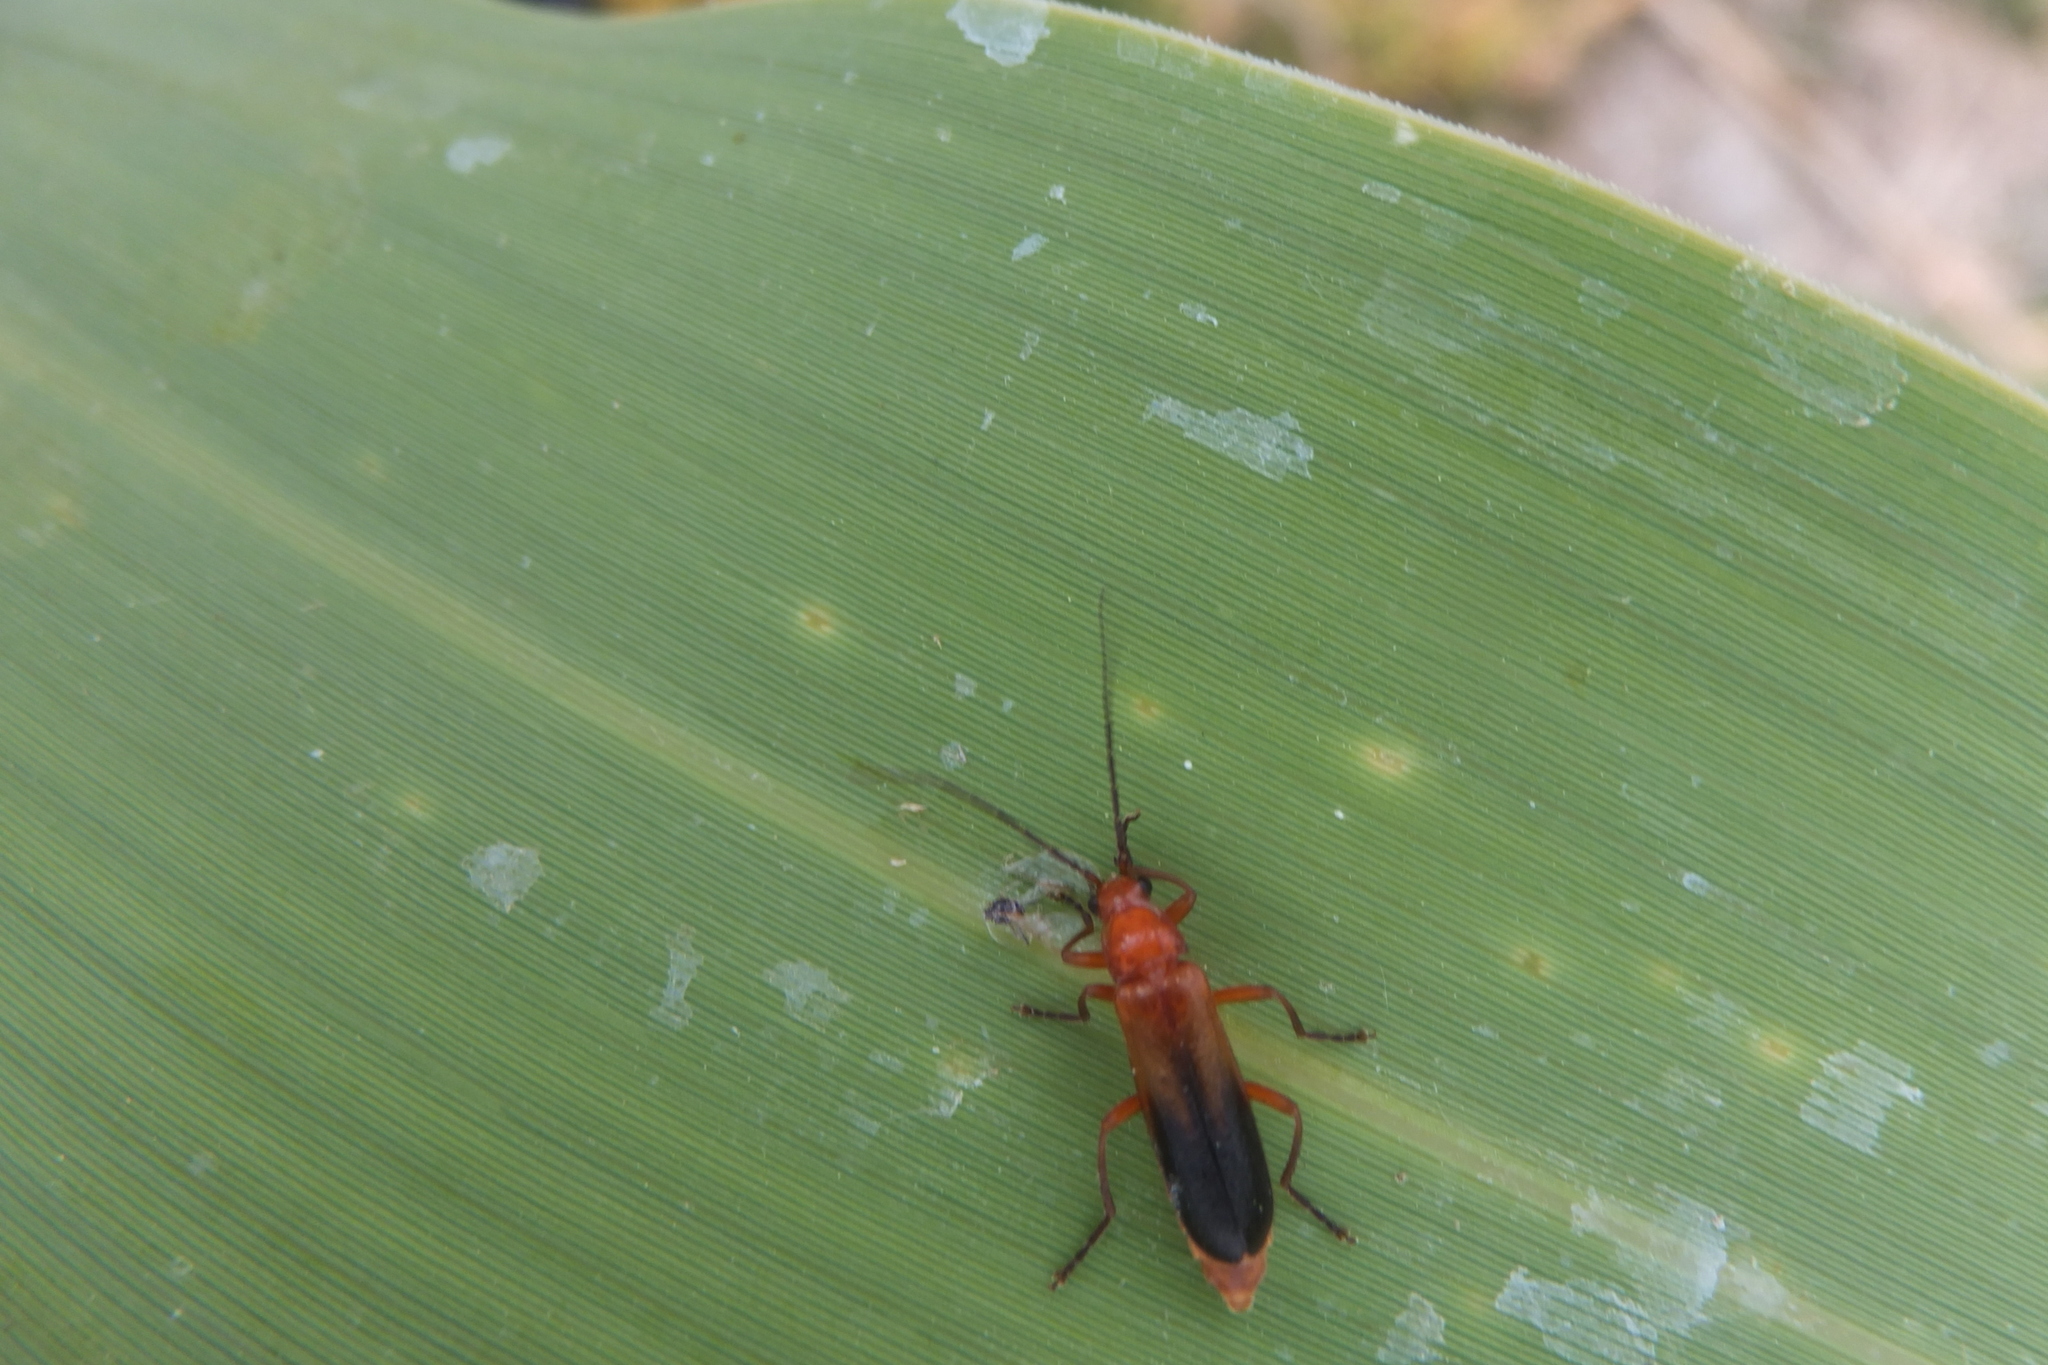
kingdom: Animalia
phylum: Arthropoda
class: Insecta
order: Coleoptera
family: Cantharidae
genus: Rhagonycha
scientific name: Rhagonycha fulva
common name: Common red soldier beetle
